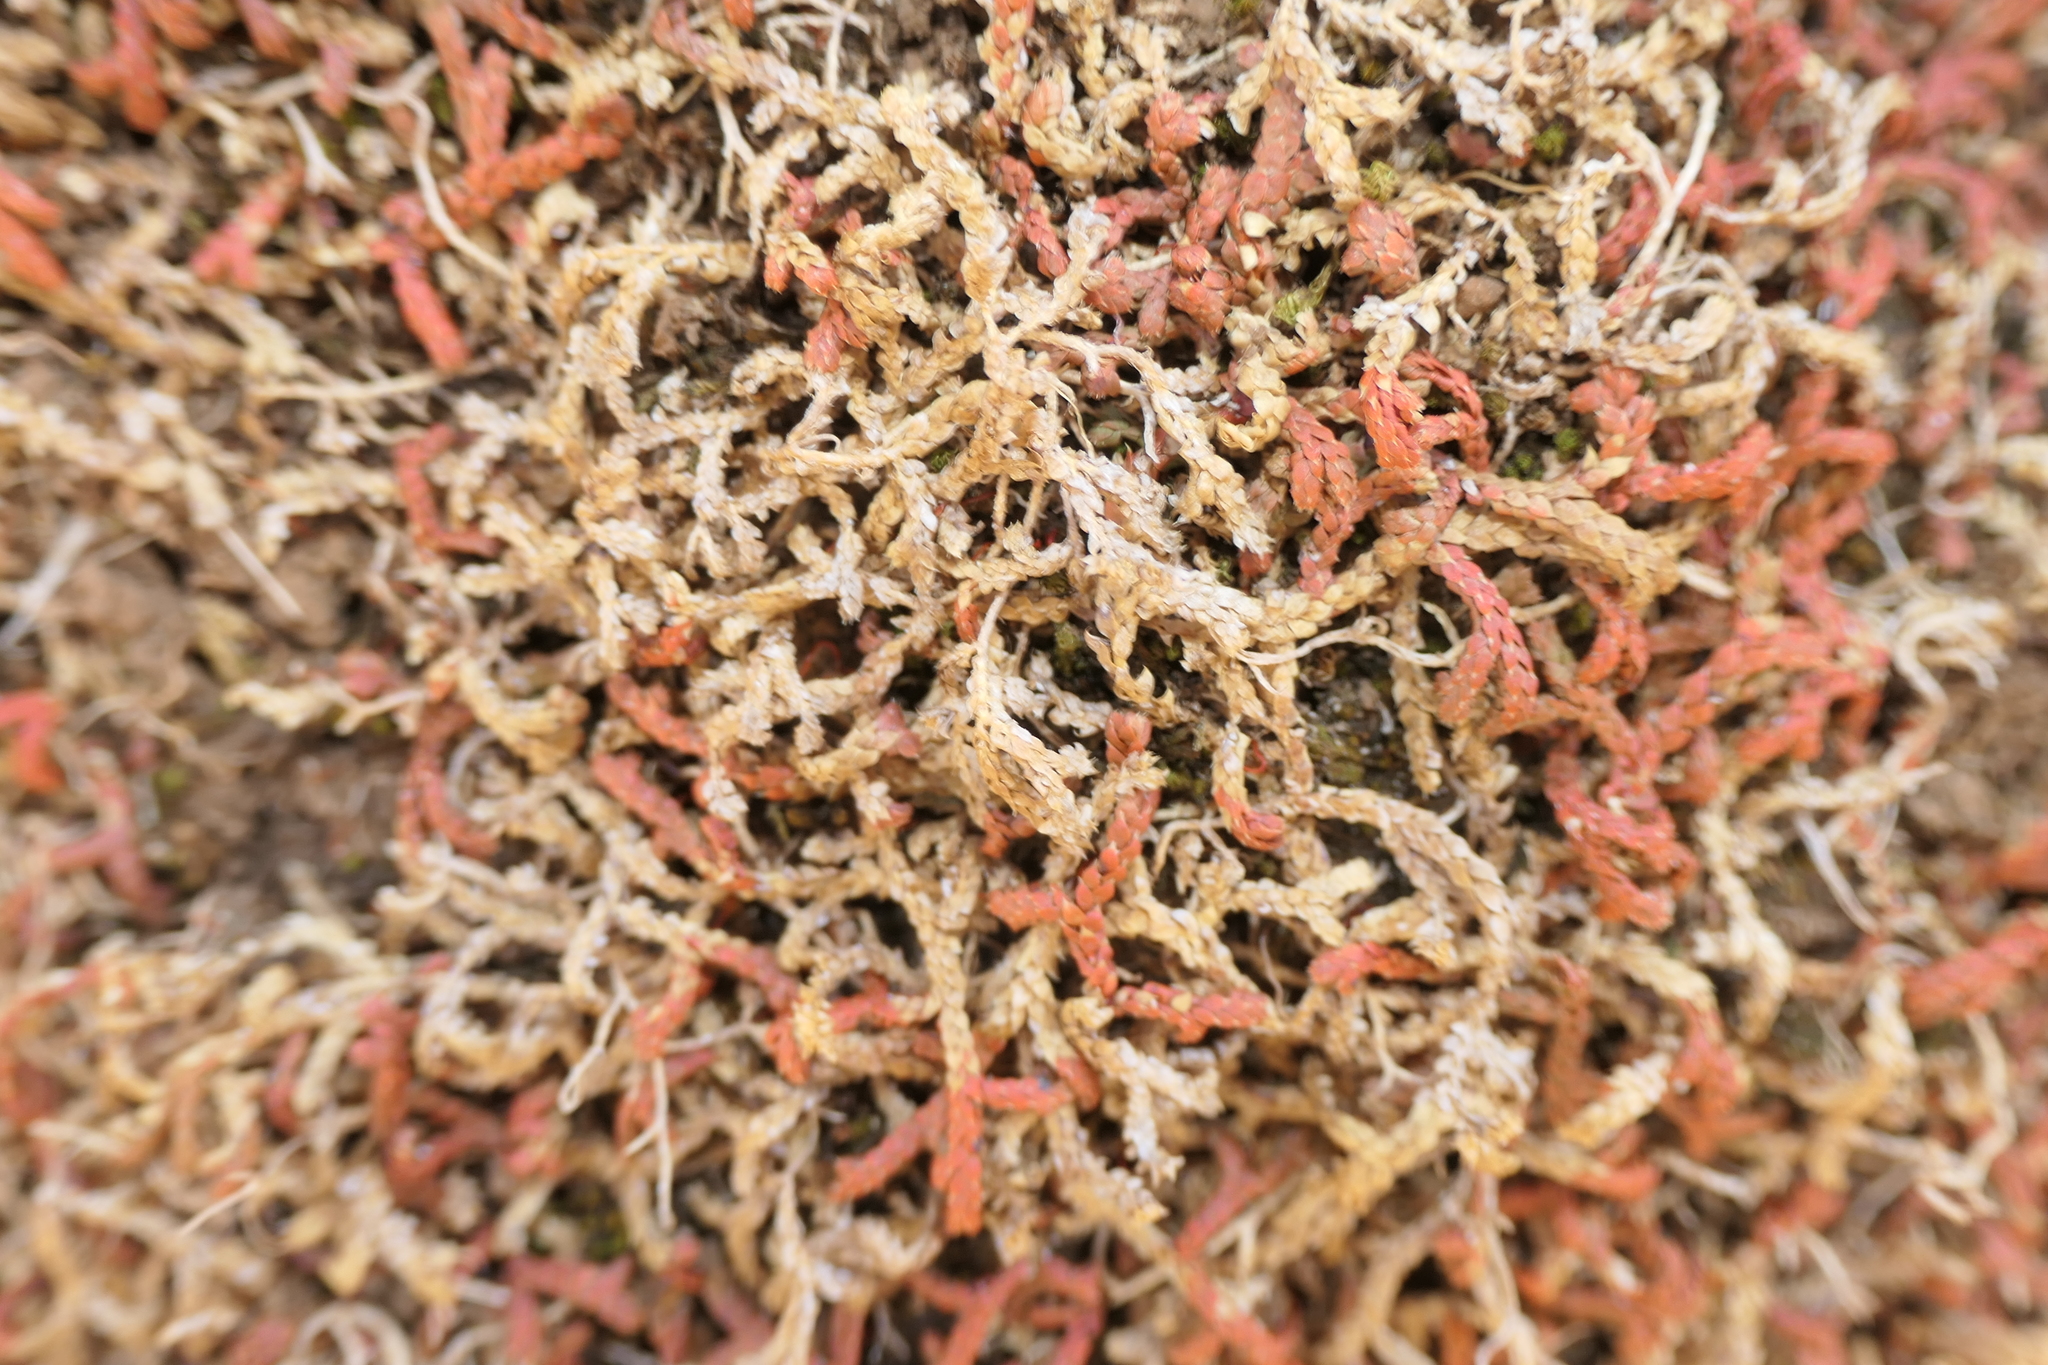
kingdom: Plantae
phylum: Tracheophyta
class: Lycopodiopsida
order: Selaginellales
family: Selaginellaceae
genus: Selaginella
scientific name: Selaginella denticulata
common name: Toothed-leaved clubmoss
